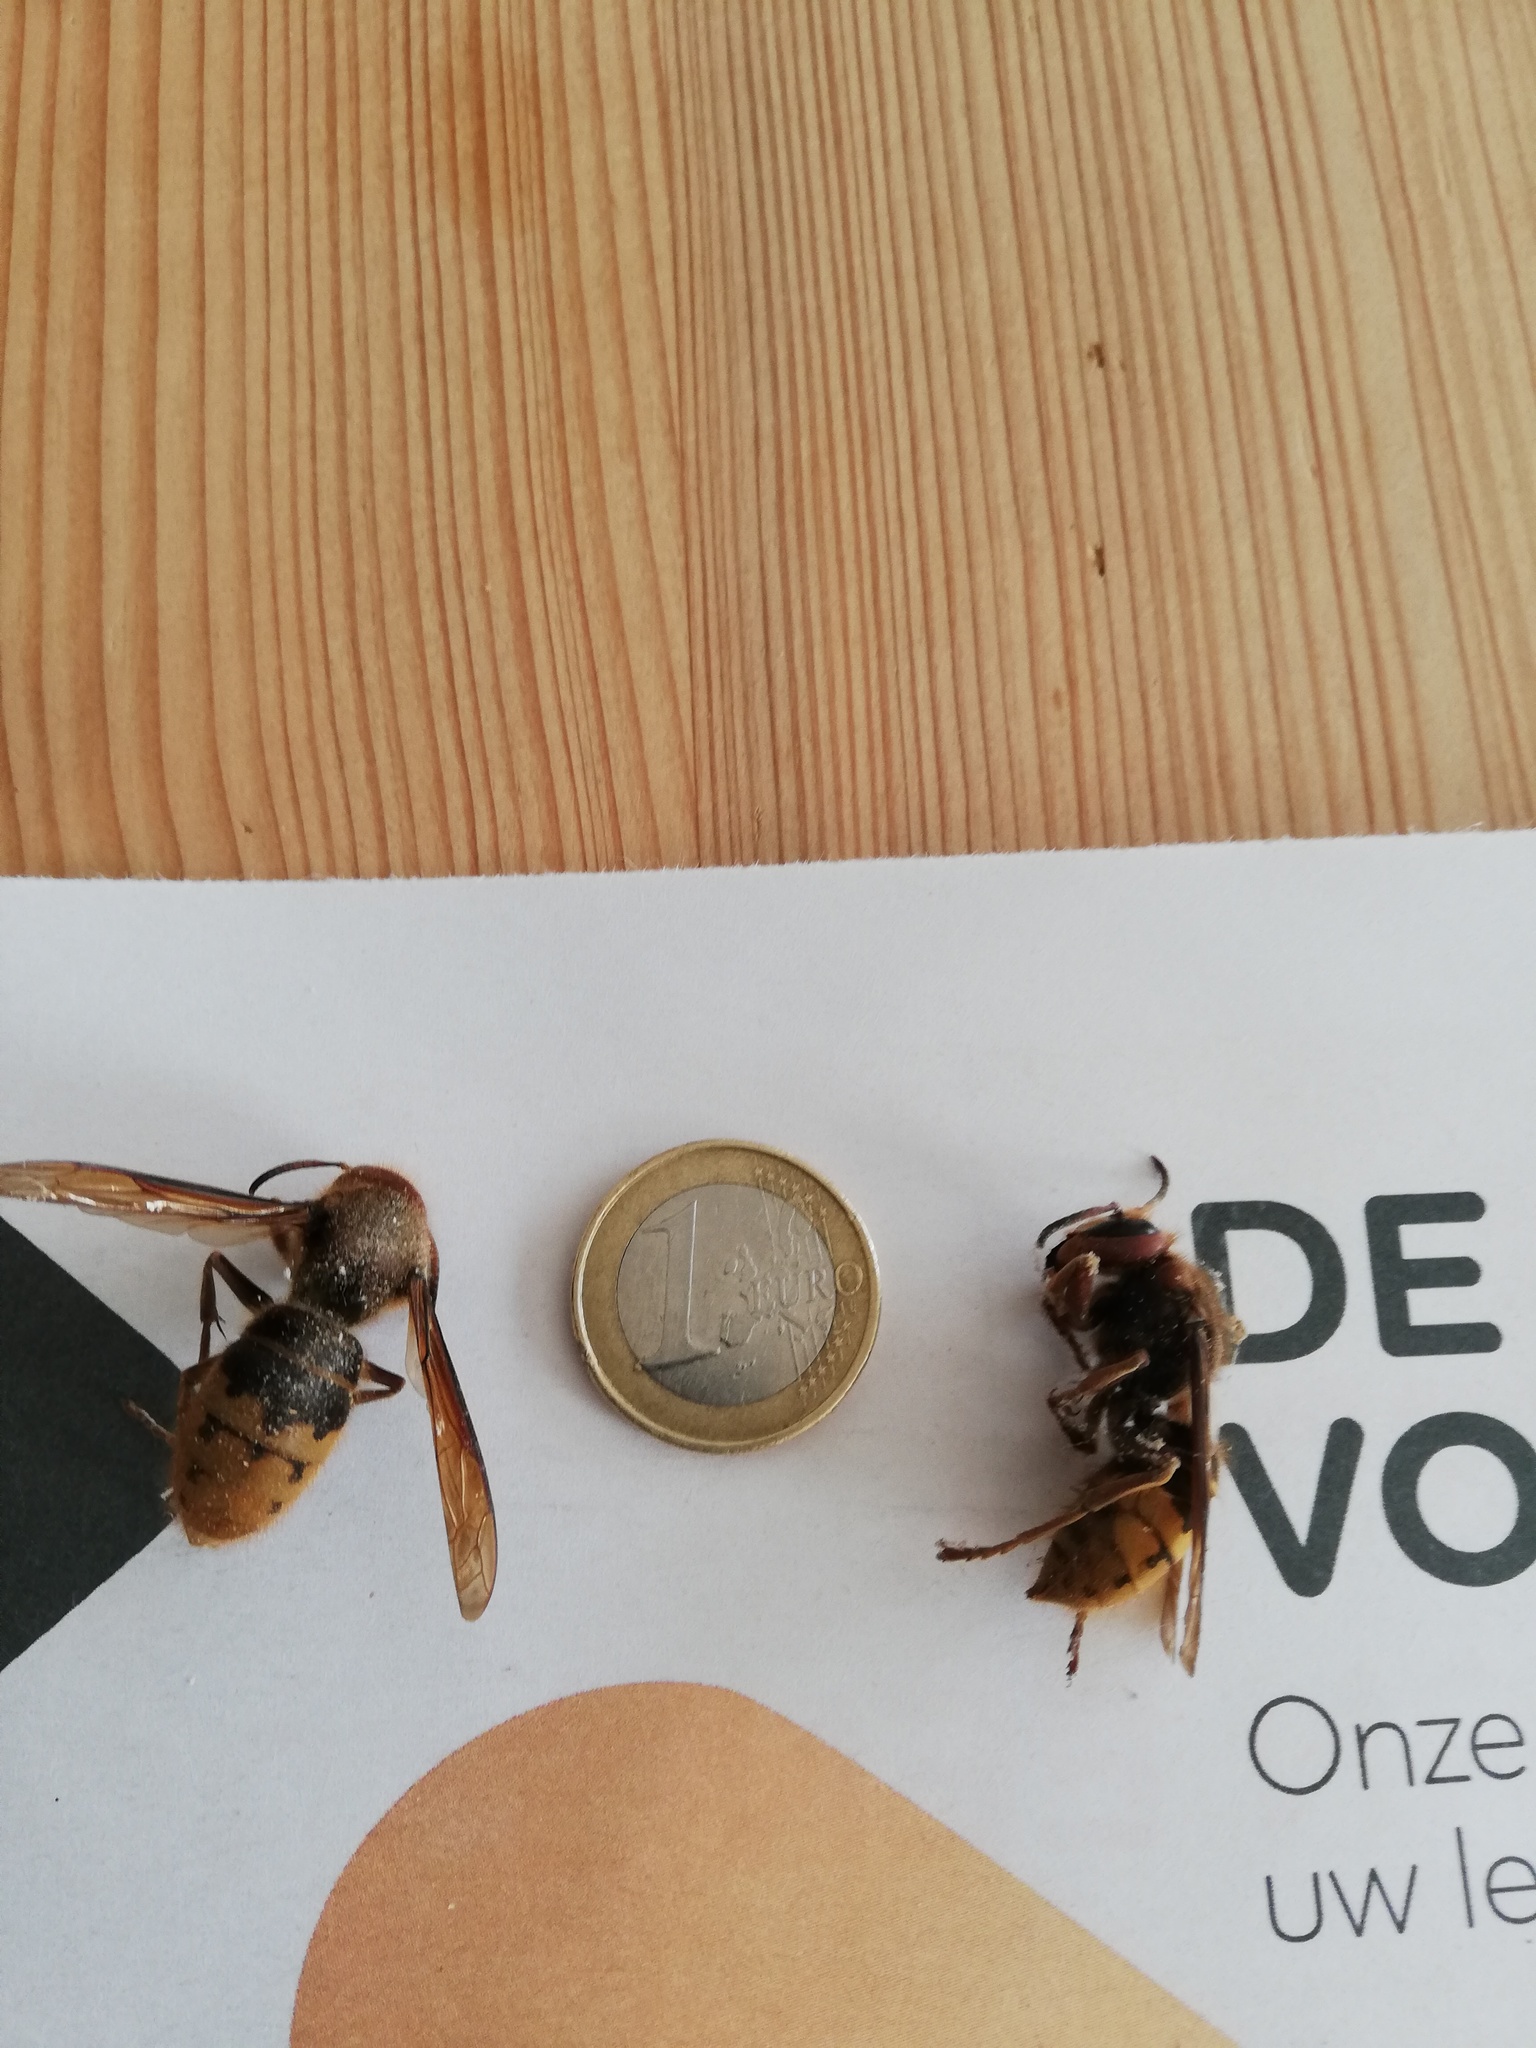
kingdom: Animalia
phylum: Arthropoda
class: Insecta
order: Hymenoptera
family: Vespidae
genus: Vespa
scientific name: Vespa crabro
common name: Hornet
